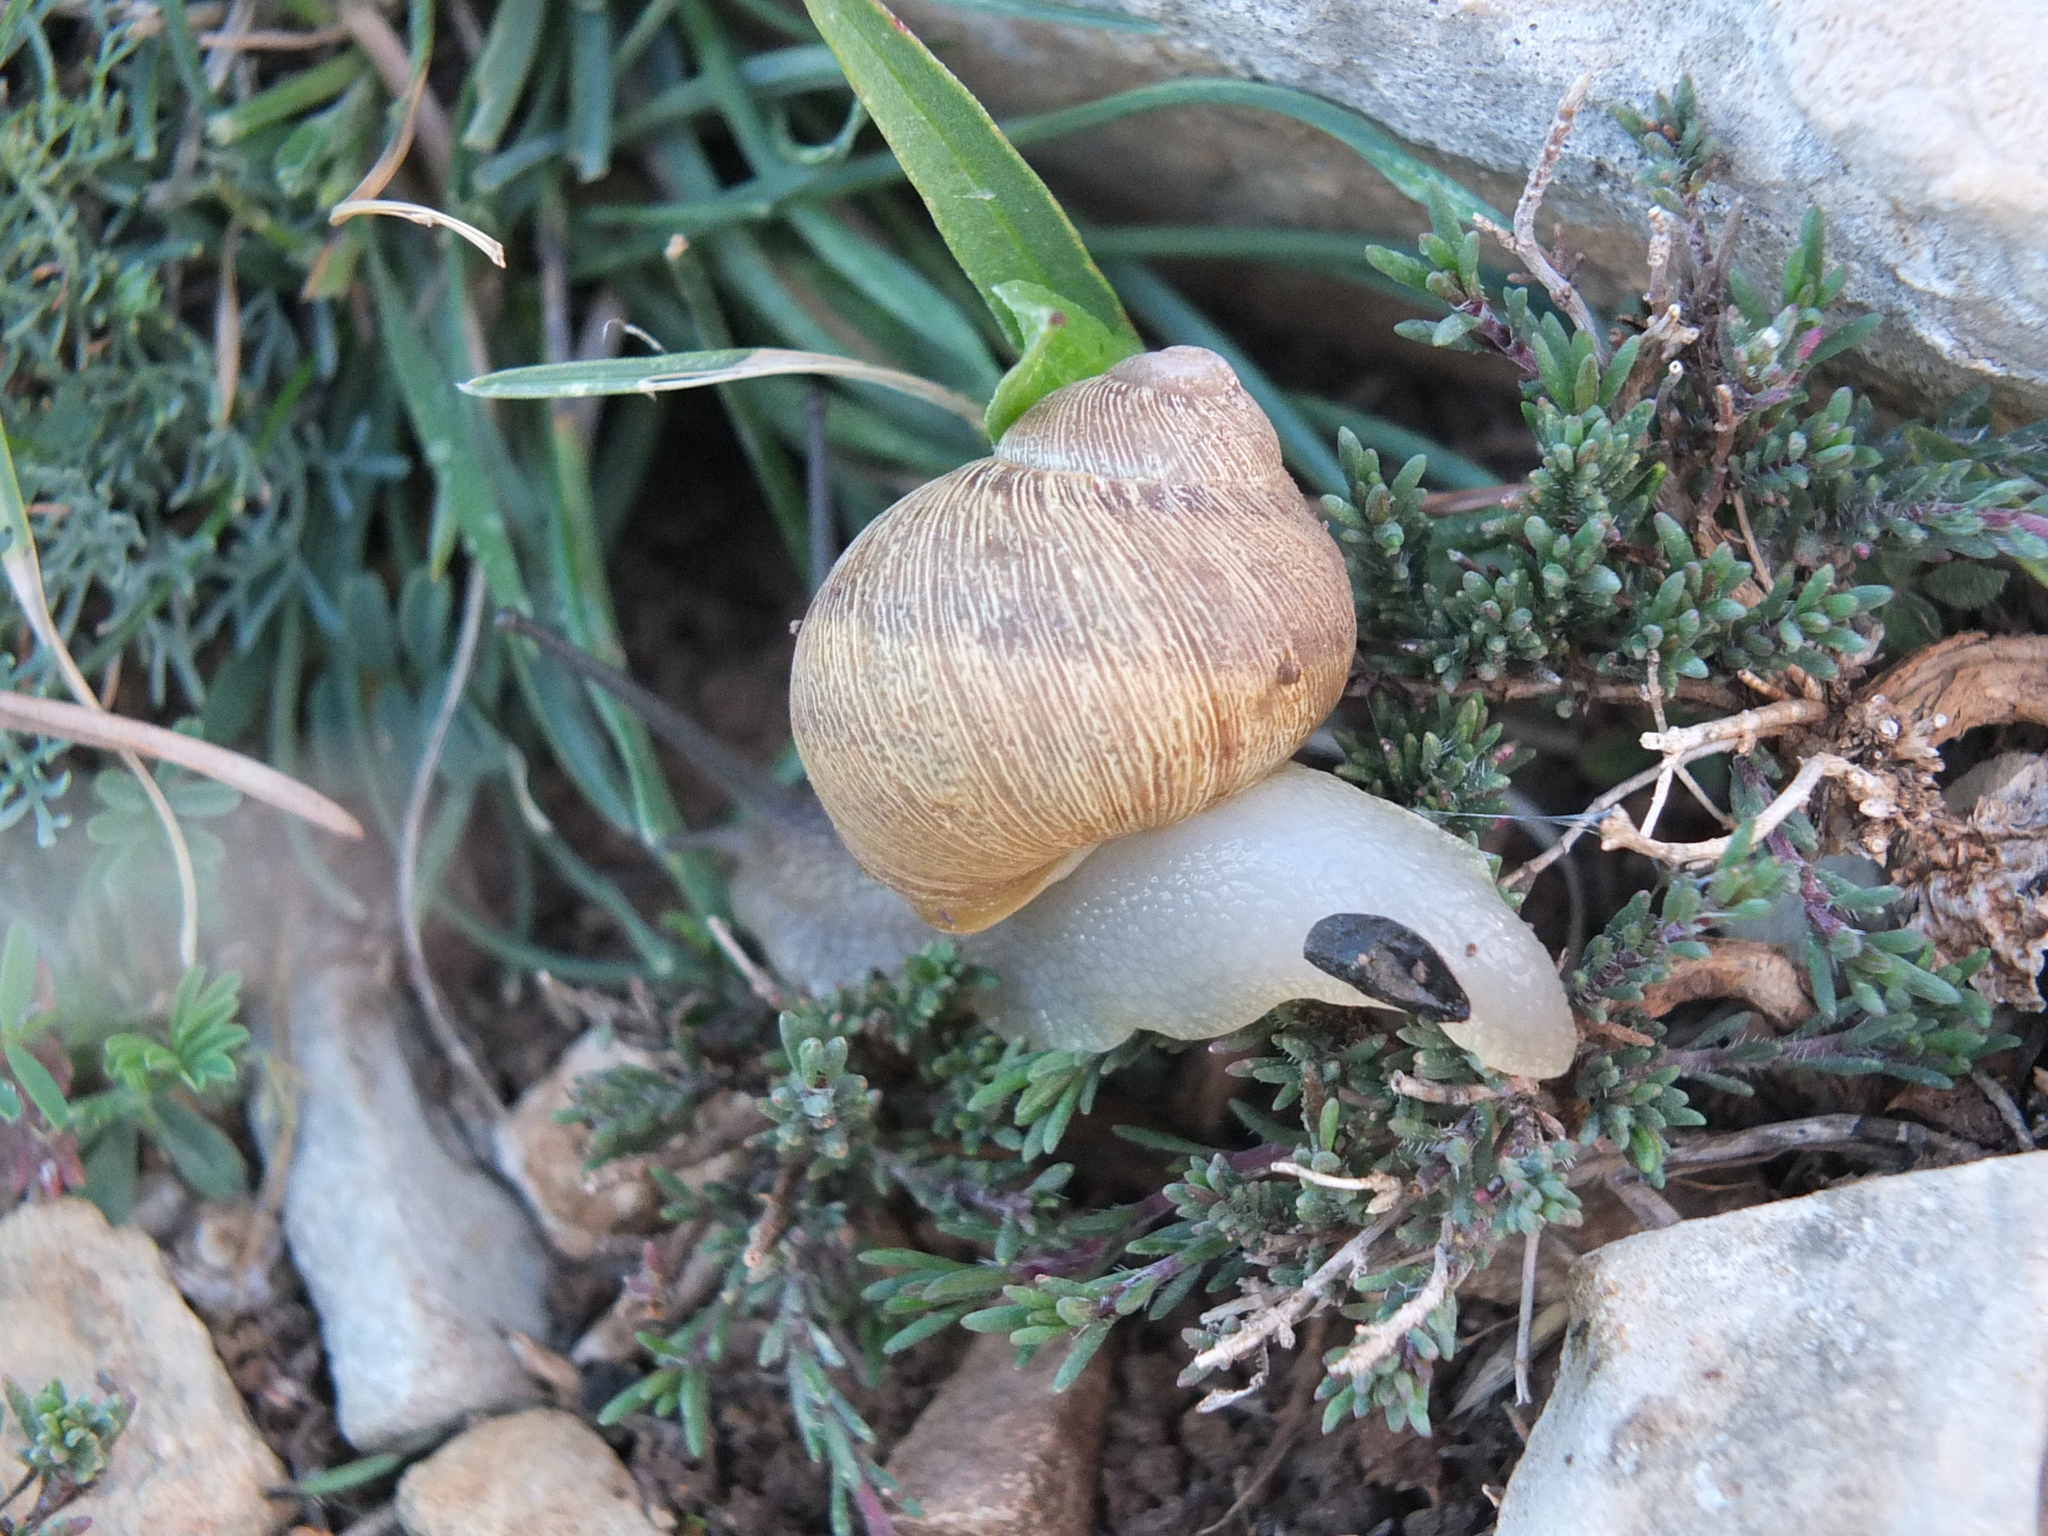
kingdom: Animalia
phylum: Mollusca
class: Gastropoda
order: Stylommatophora
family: Helicidae
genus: Cornu
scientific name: Cornu aspersum
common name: Brown garden snail
